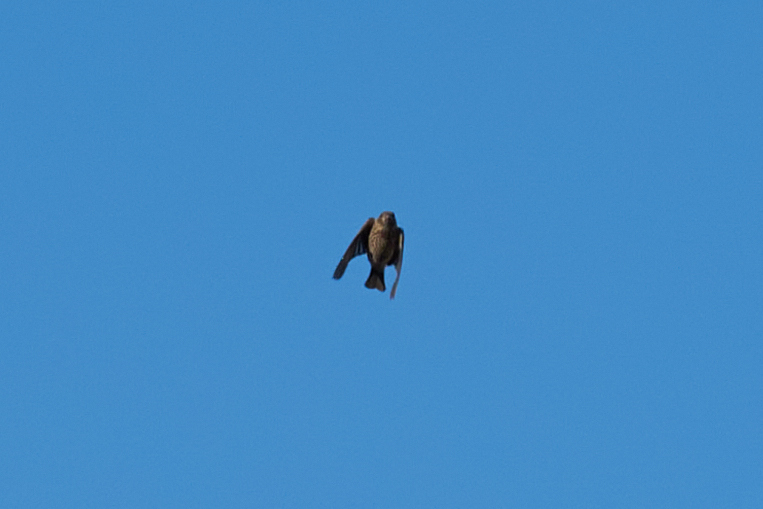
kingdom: Animalia
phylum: Chordata
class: Aves
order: Passeriformes
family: Fringillidae
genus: Haemorhous
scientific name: Haemorhous mexicanus
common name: House finch
